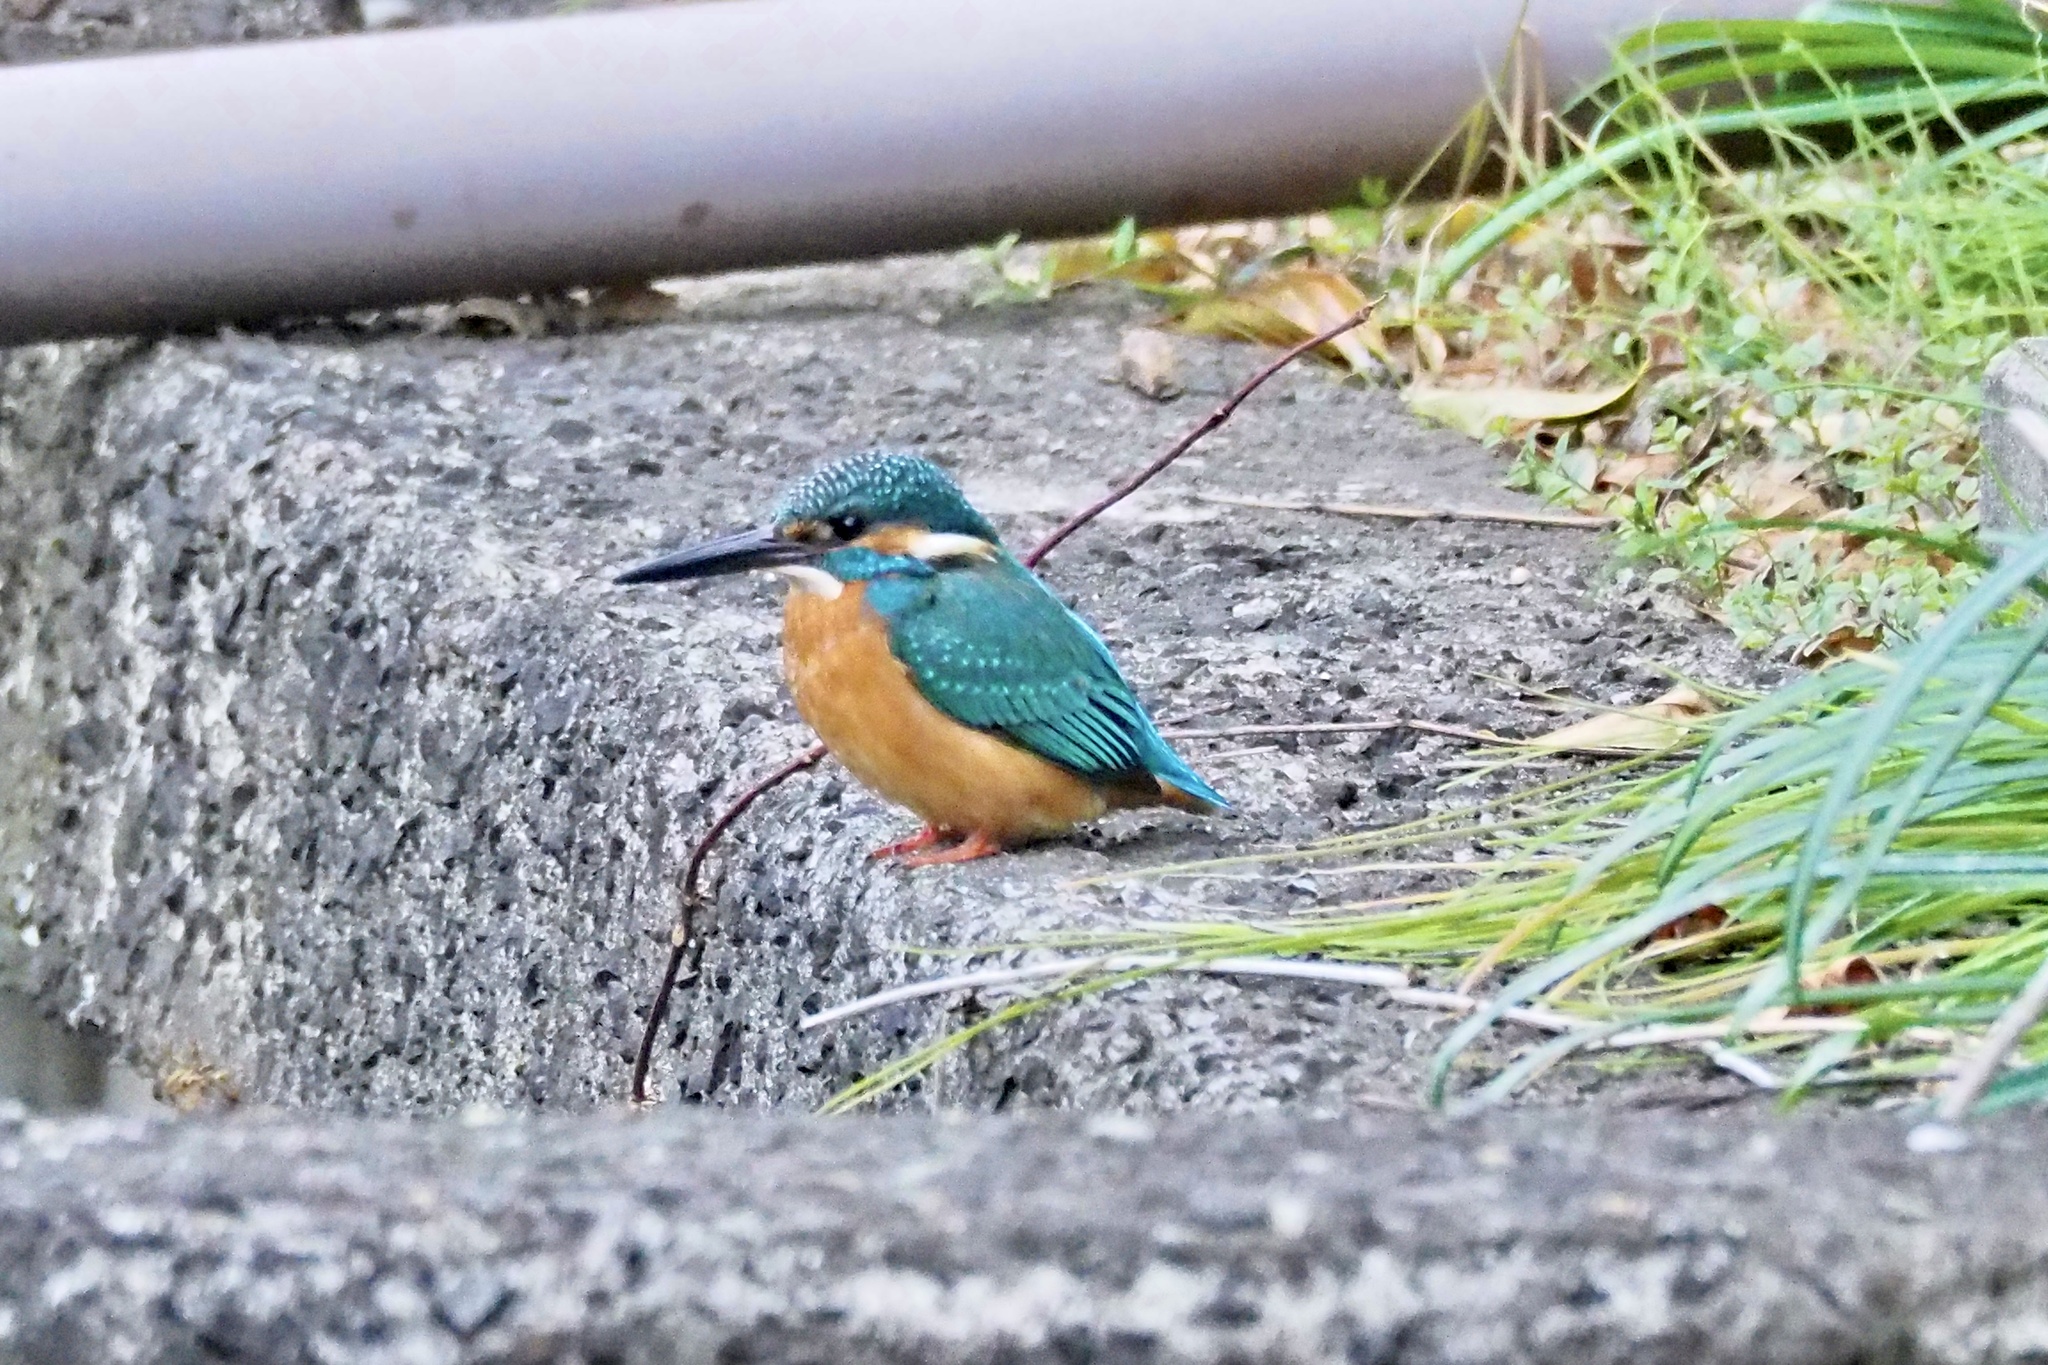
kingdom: Animalia
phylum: Chordata
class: Aves
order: Coraciiformes
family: Alcedinidae
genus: Alcedo
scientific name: Alcedo atthis
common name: Common kingfisher
